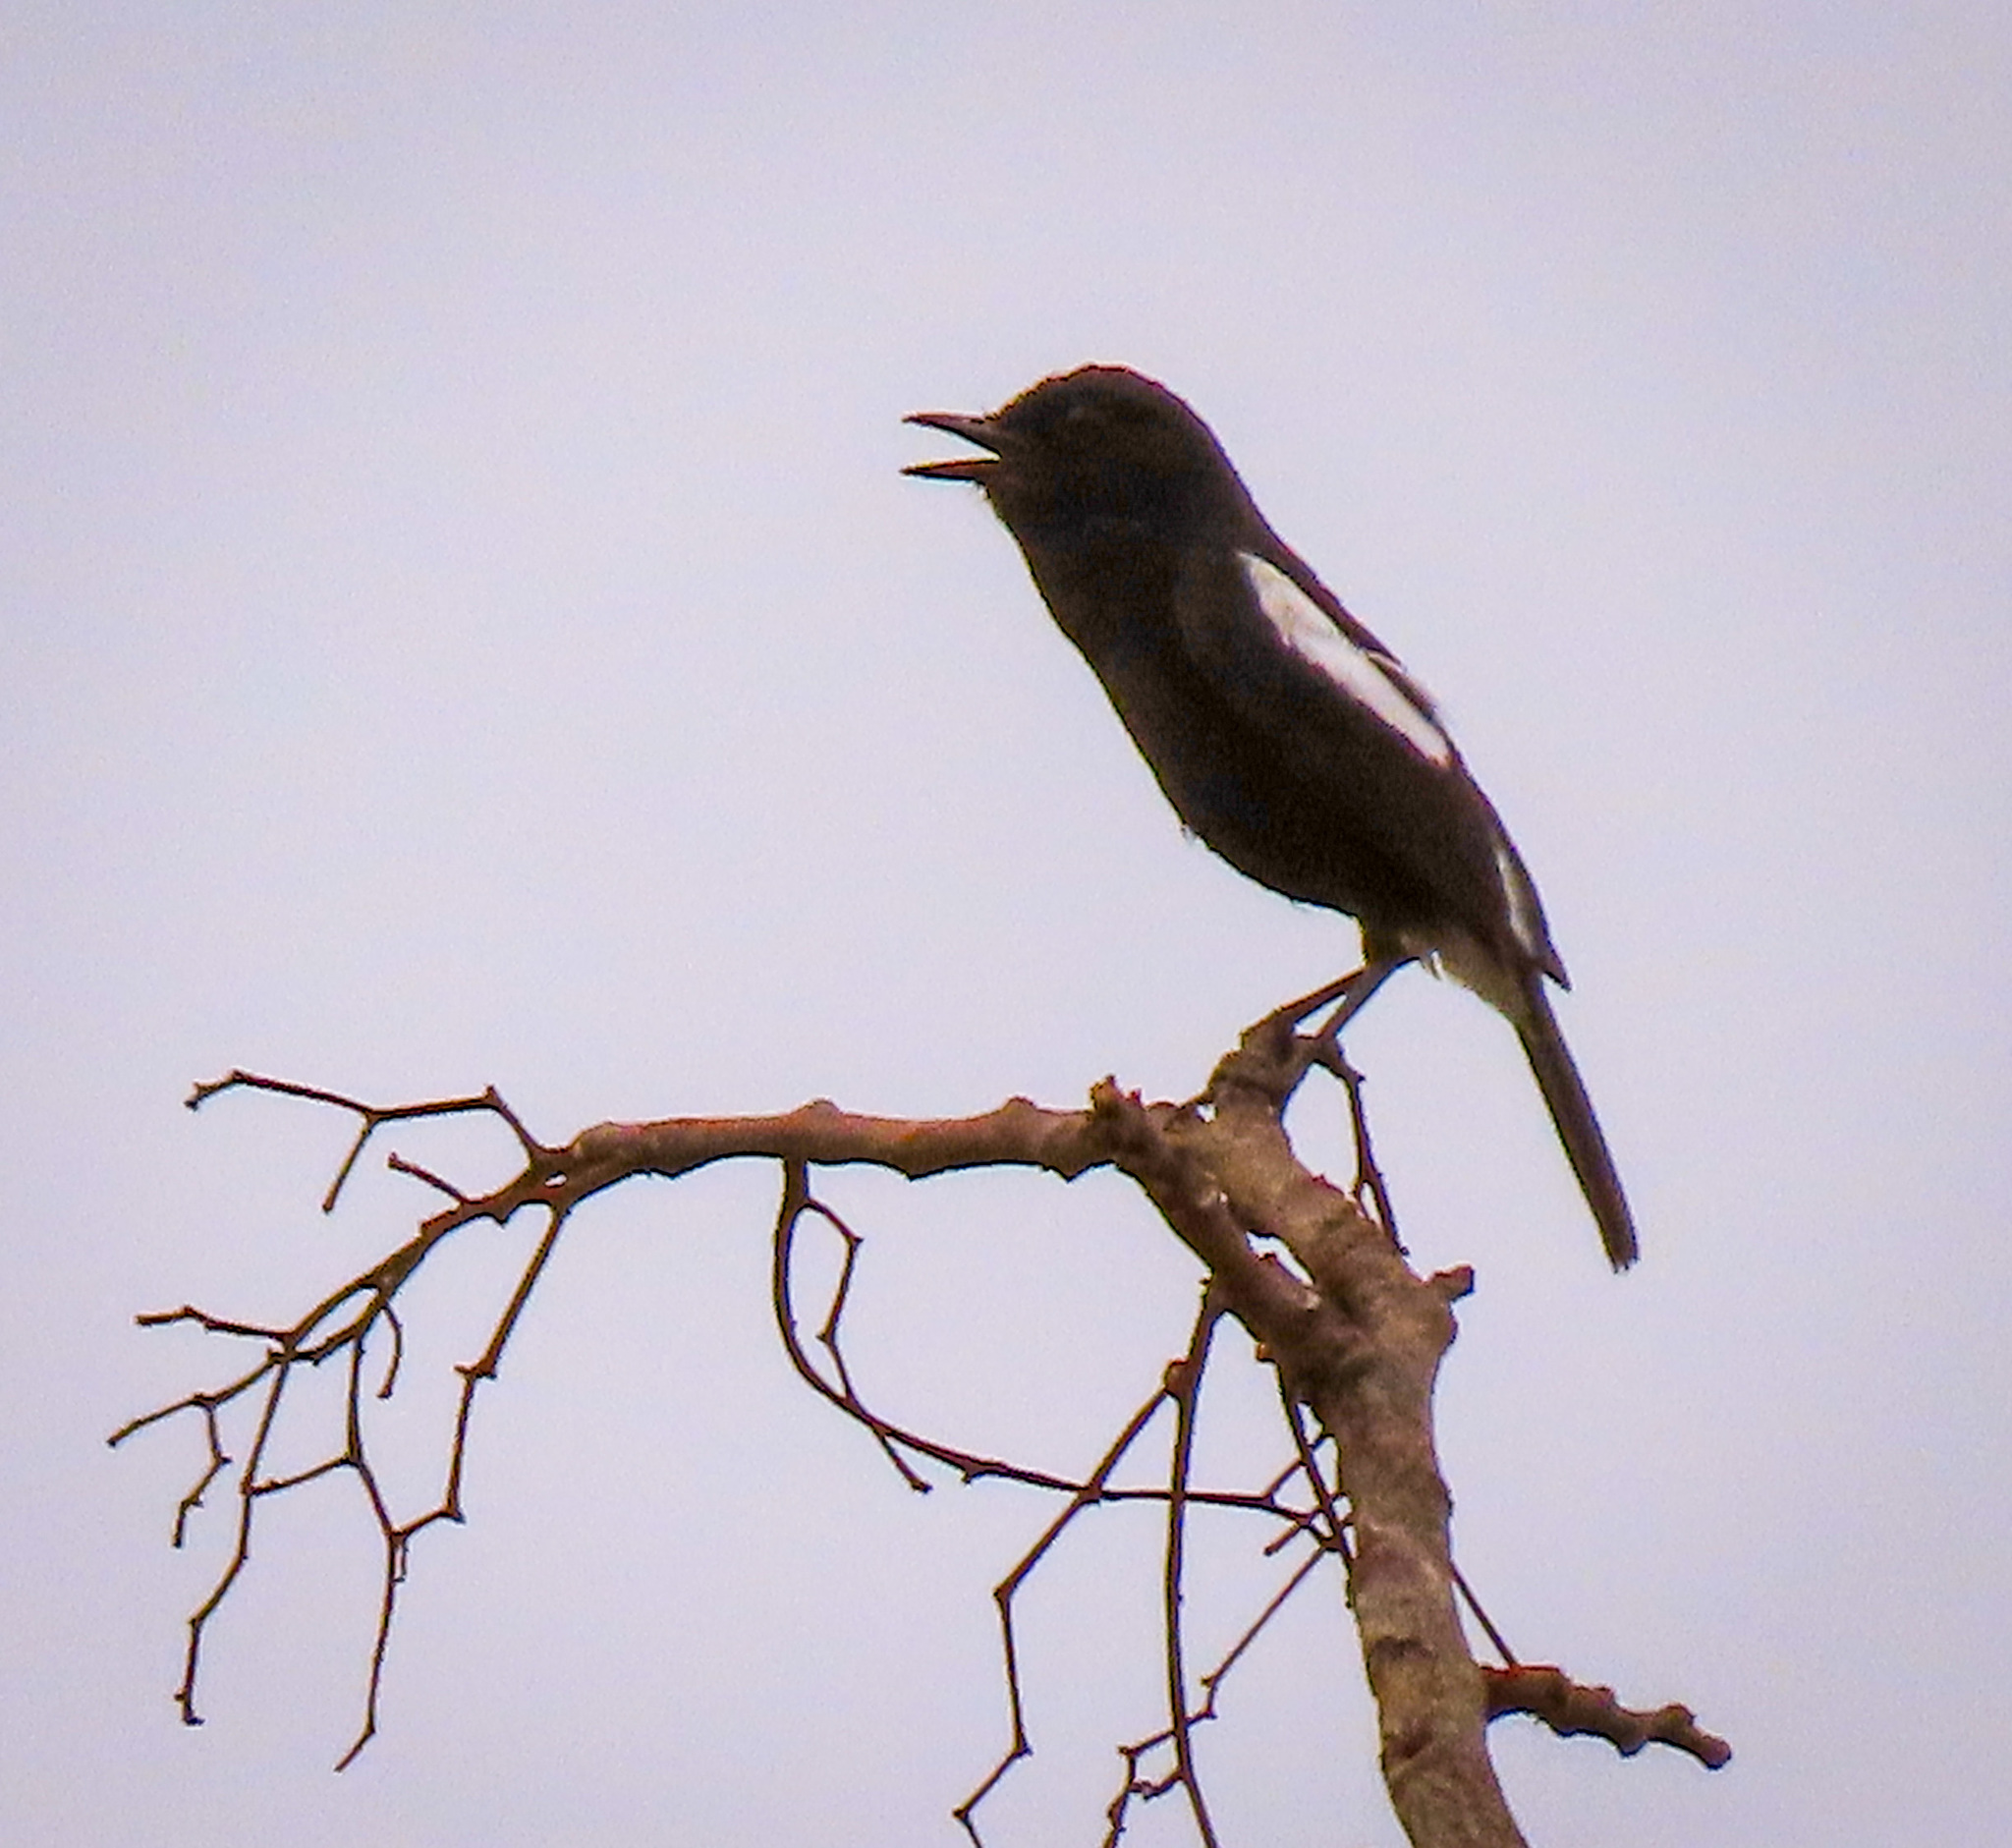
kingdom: Animalia
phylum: Chordata
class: Aves
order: Passeriformes
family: Muscicapidae
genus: Saxicola
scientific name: Saxicola caprata
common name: Pied bush chat
